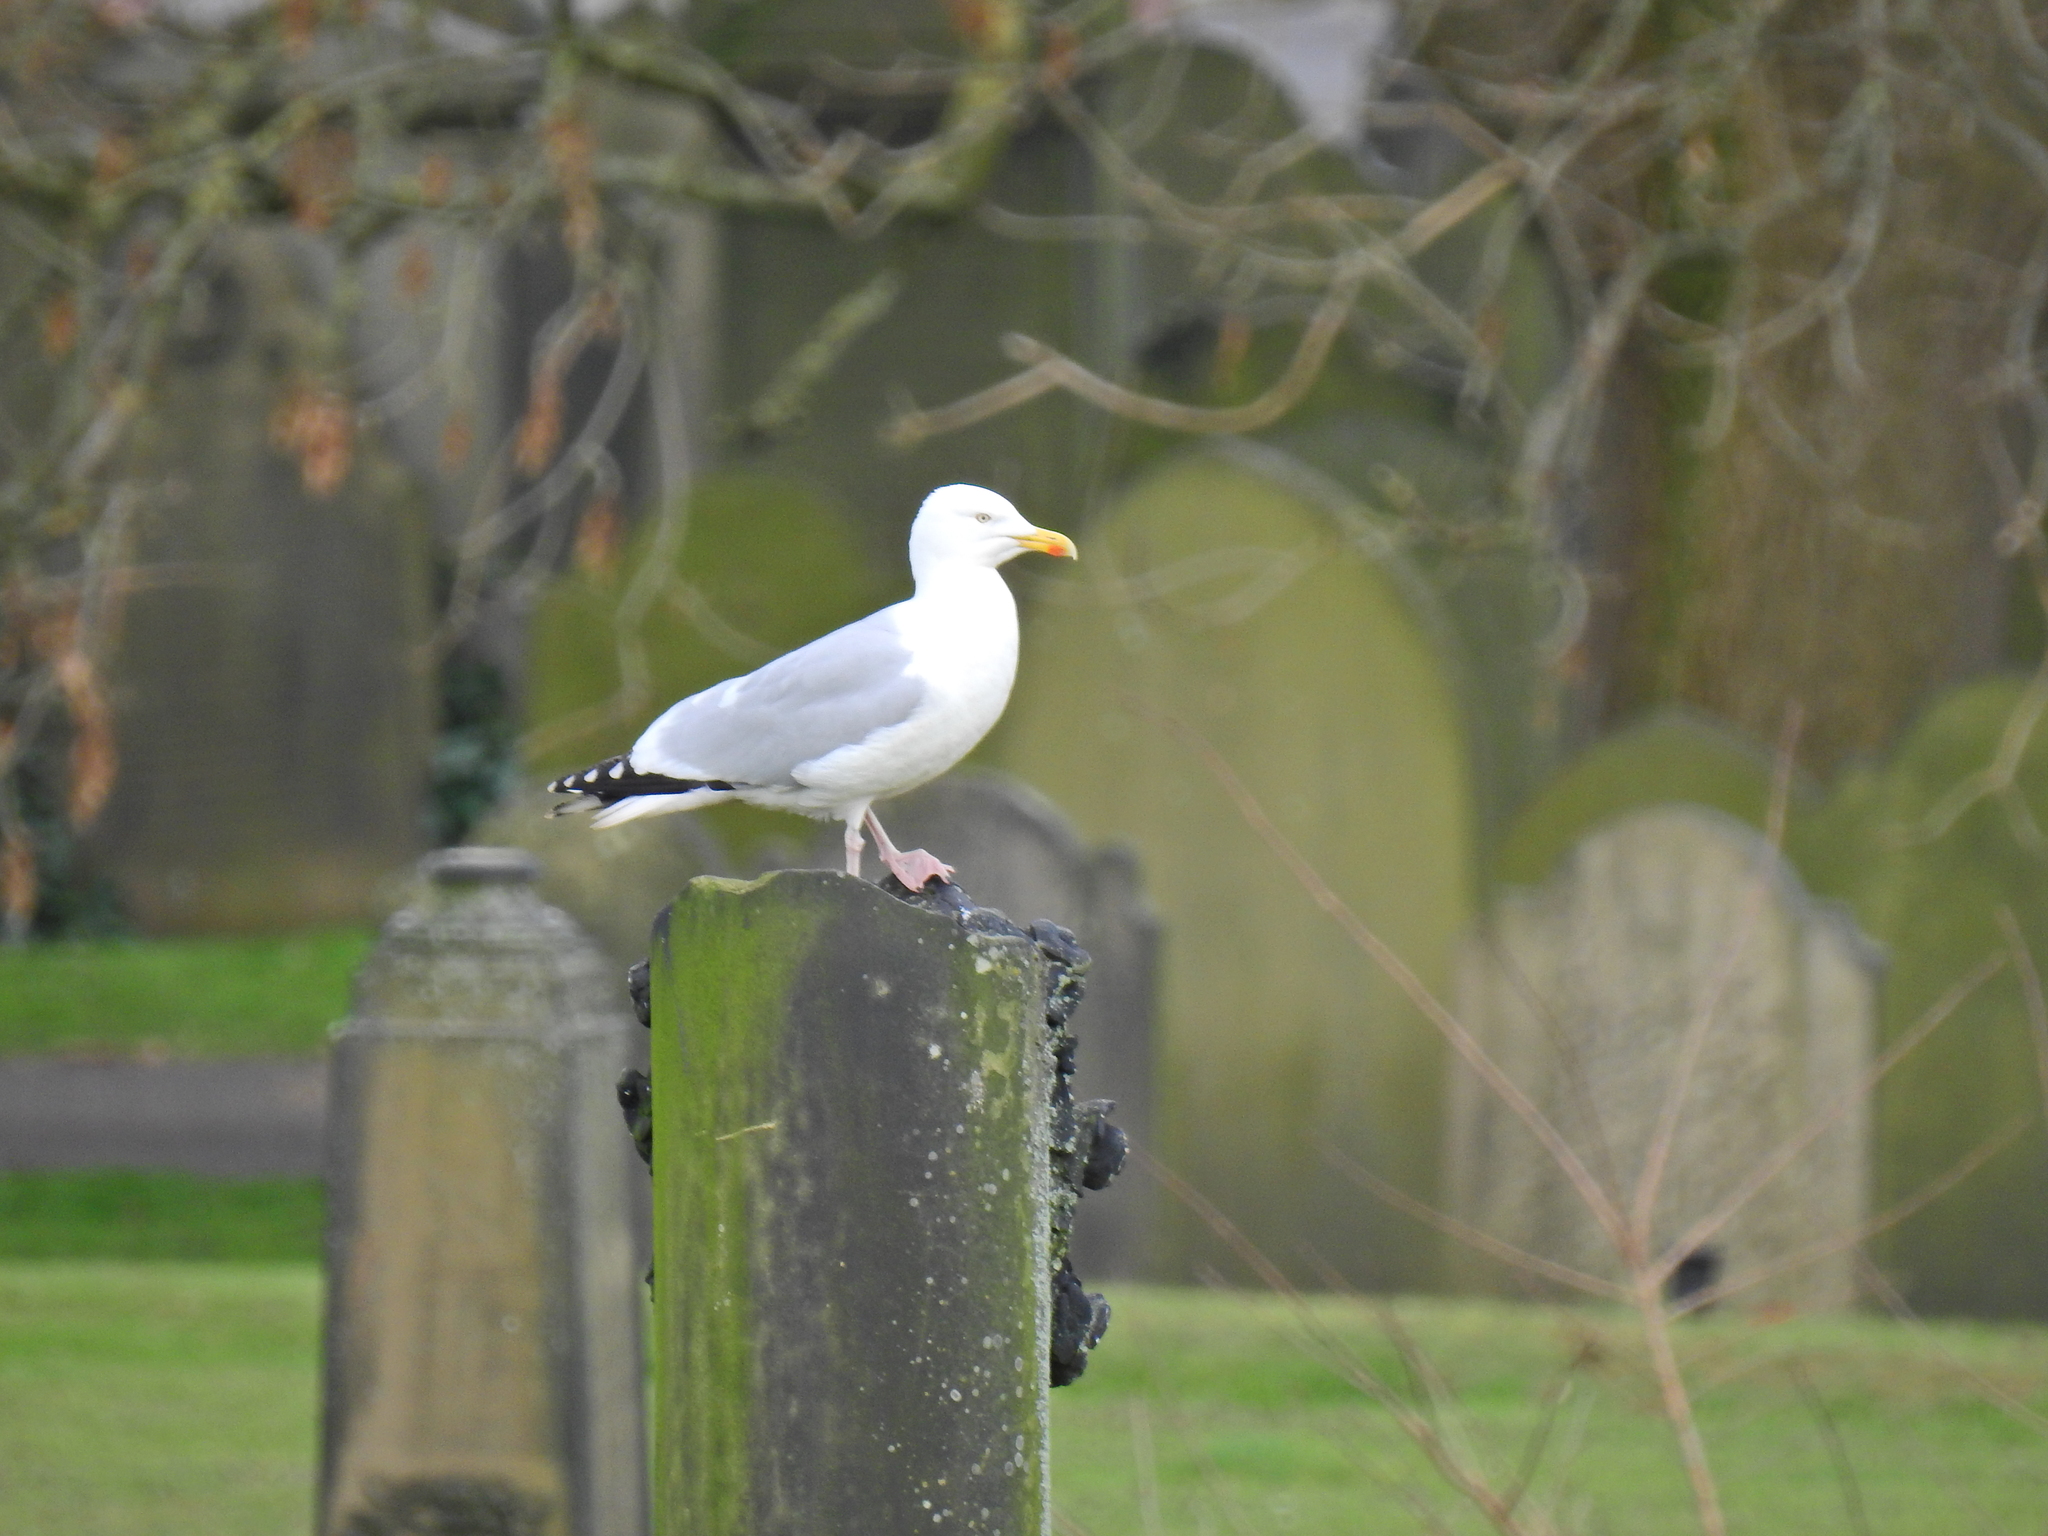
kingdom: Animalia
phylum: Chordata
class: Aves
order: Charadriiformes
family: Laridae
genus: Larus
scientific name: Larus argentatus
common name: Herring gull
